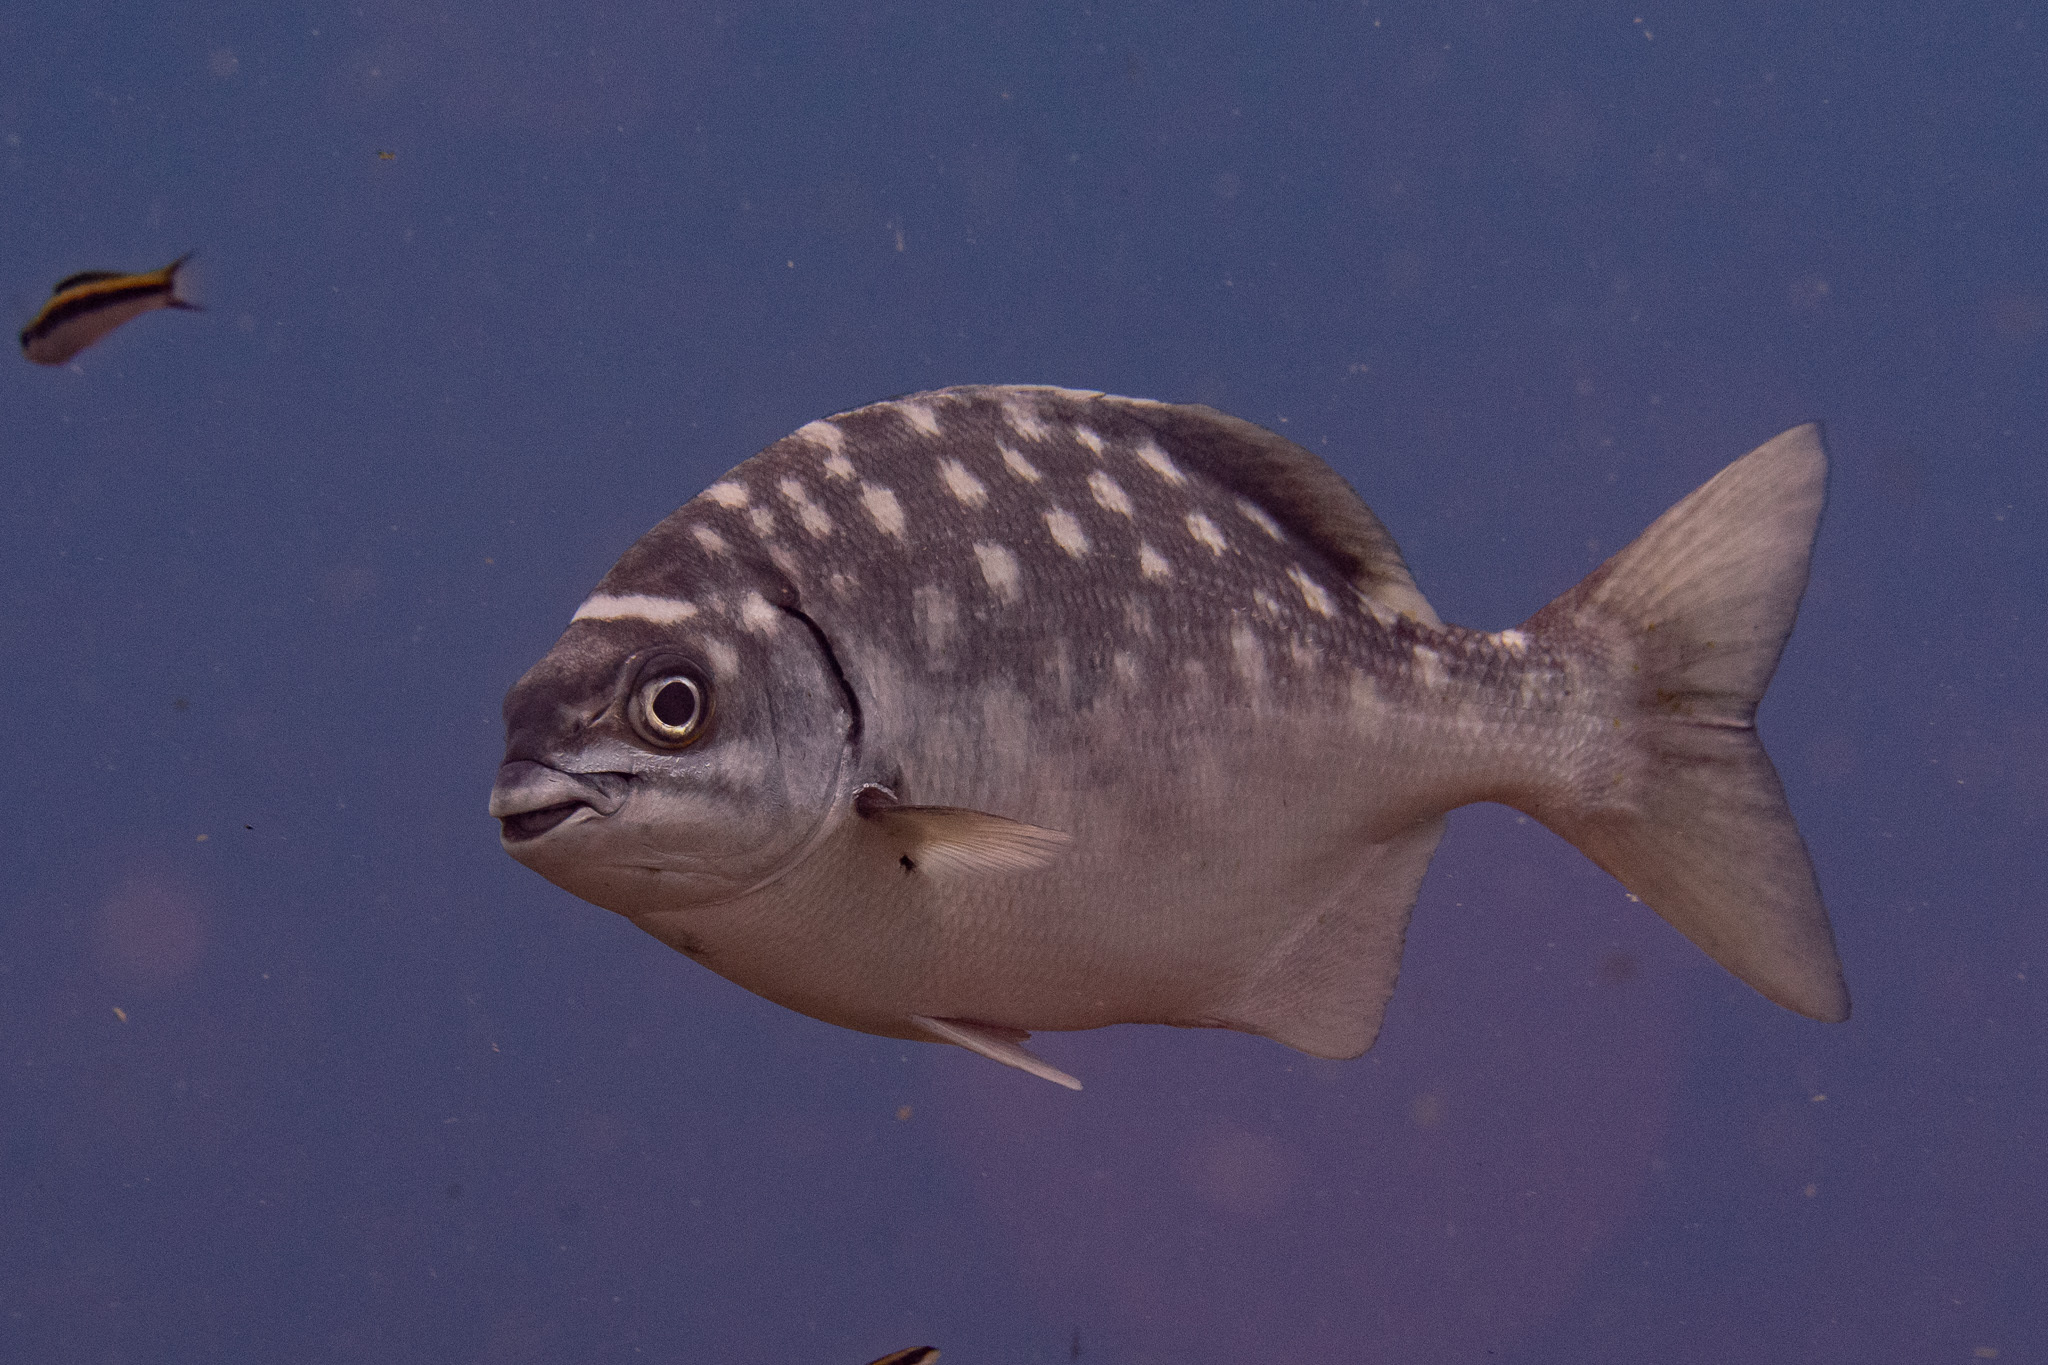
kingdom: Animalia
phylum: Chordata
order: Perciformes
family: Kyphosidae
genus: Kyphosus
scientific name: Kyphosus sectatrix
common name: Bermuda chub
